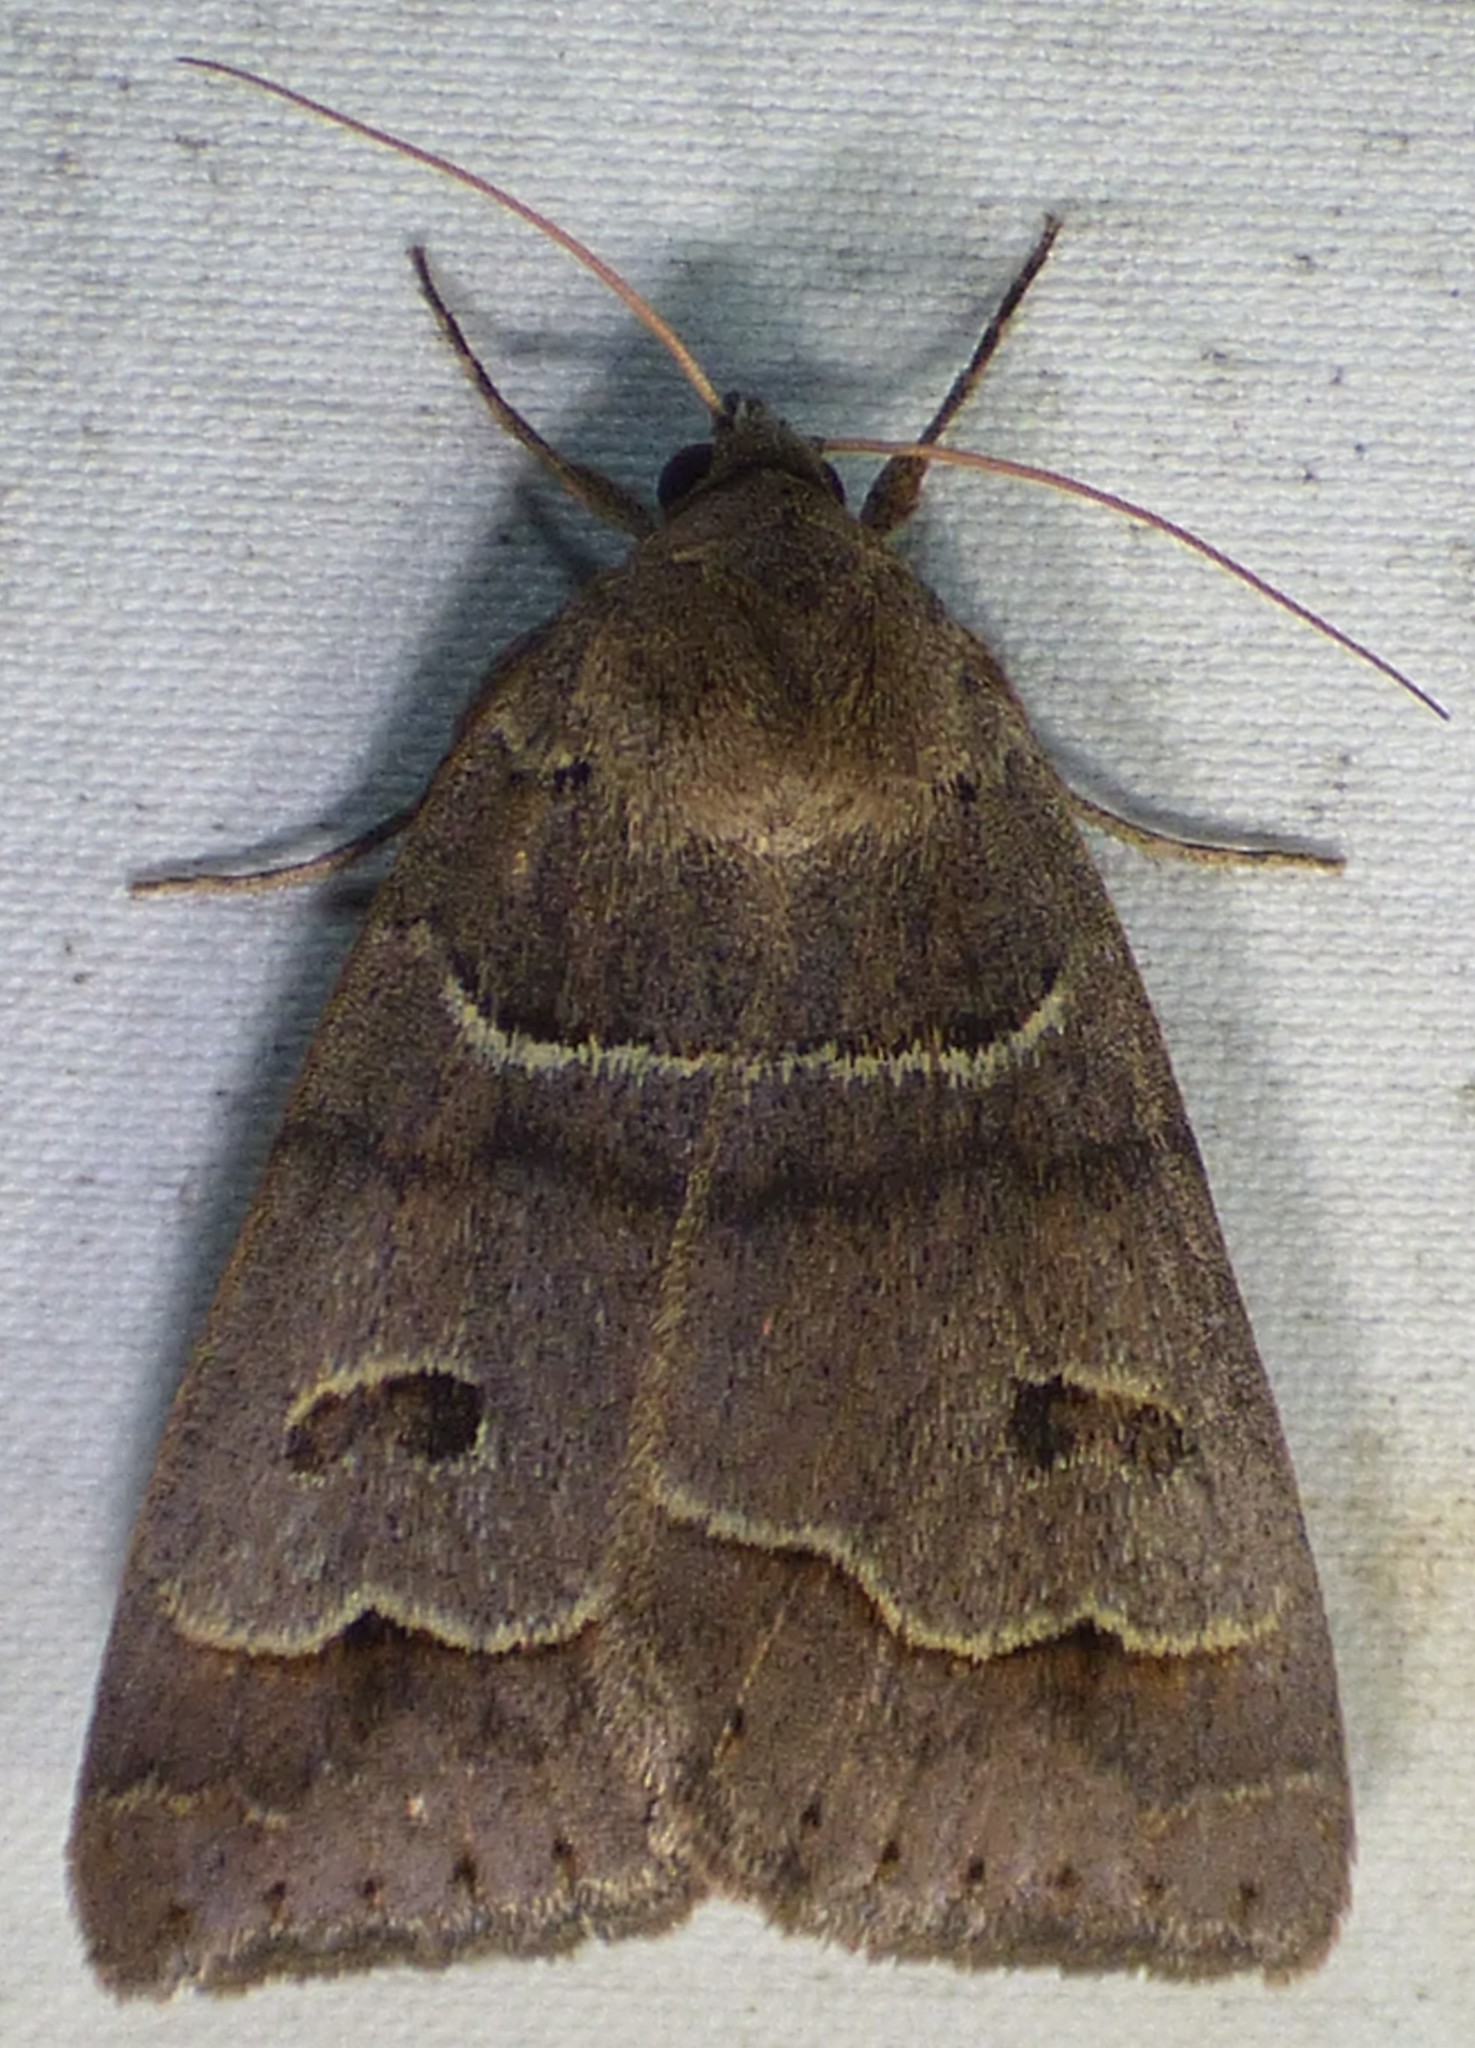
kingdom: Animalia
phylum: Arthropoda
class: Insecta
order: Lepidoptera
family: Erebidae
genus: Phoberia
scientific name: Phoberia atomaris
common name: Common oak moth
